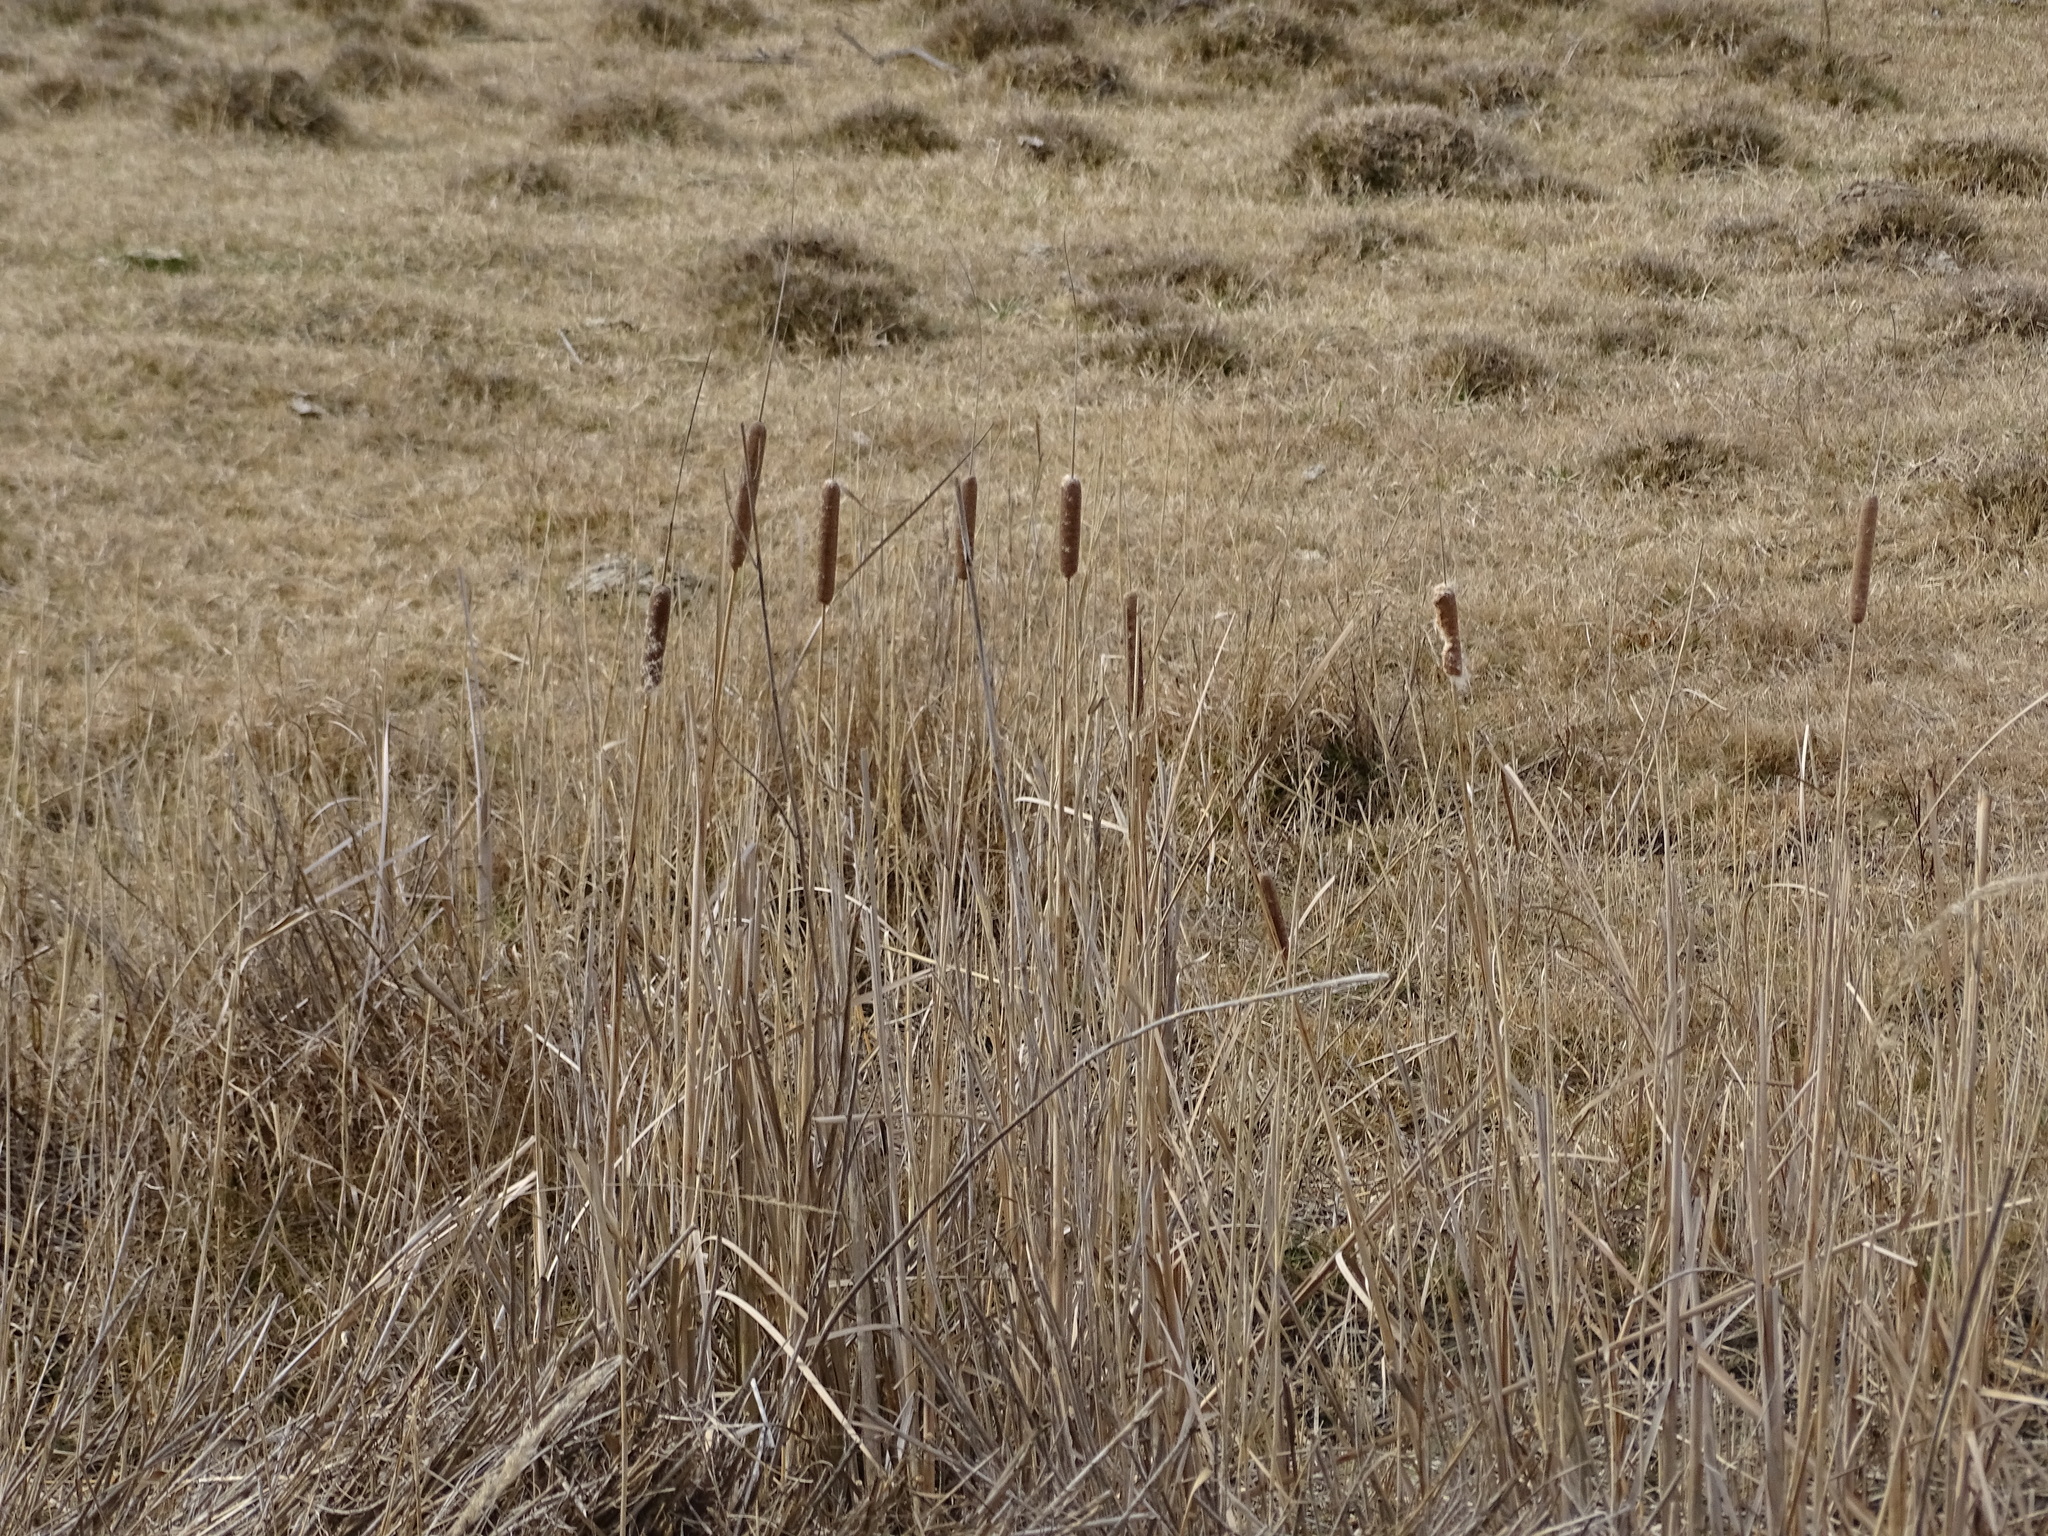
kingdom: Plantae
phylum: Tracheophyta
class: Liliopsida
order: Poales
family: Typhaceae
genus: Typha
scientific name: Typha angustifolia
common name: Lesser bulrush
